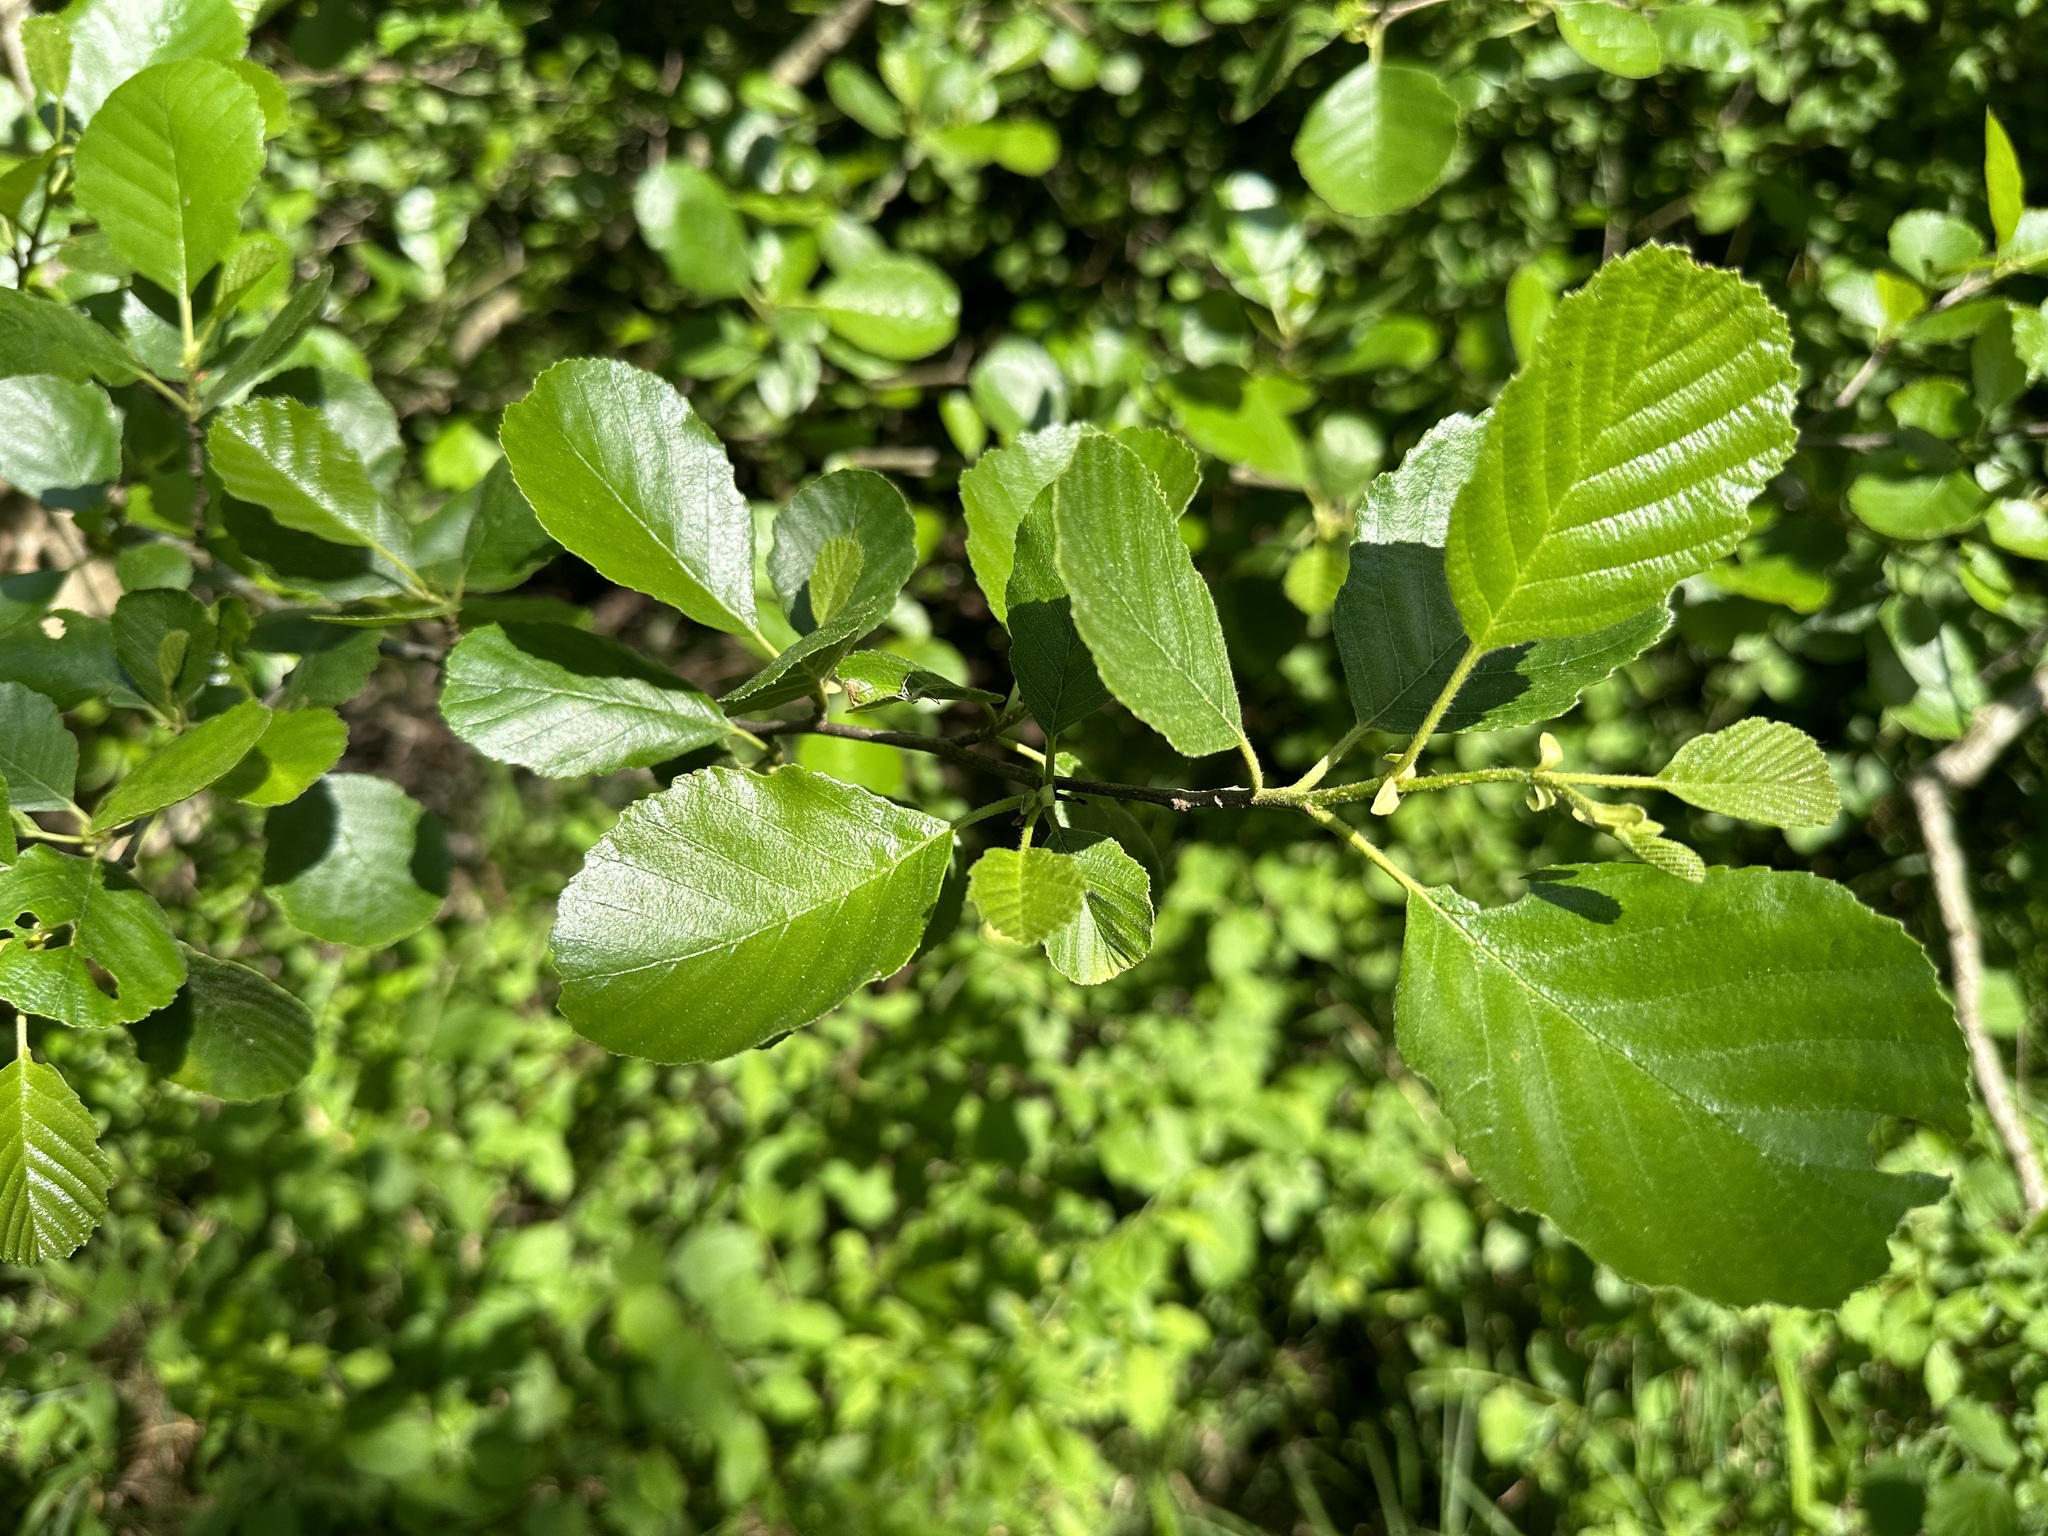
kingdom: Plantae
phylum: Tracheophyta
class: Magnoliopsida
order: Fagales
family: Betulaceae
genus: Alnus
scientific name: Alnus glutinosa
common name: Black alder
